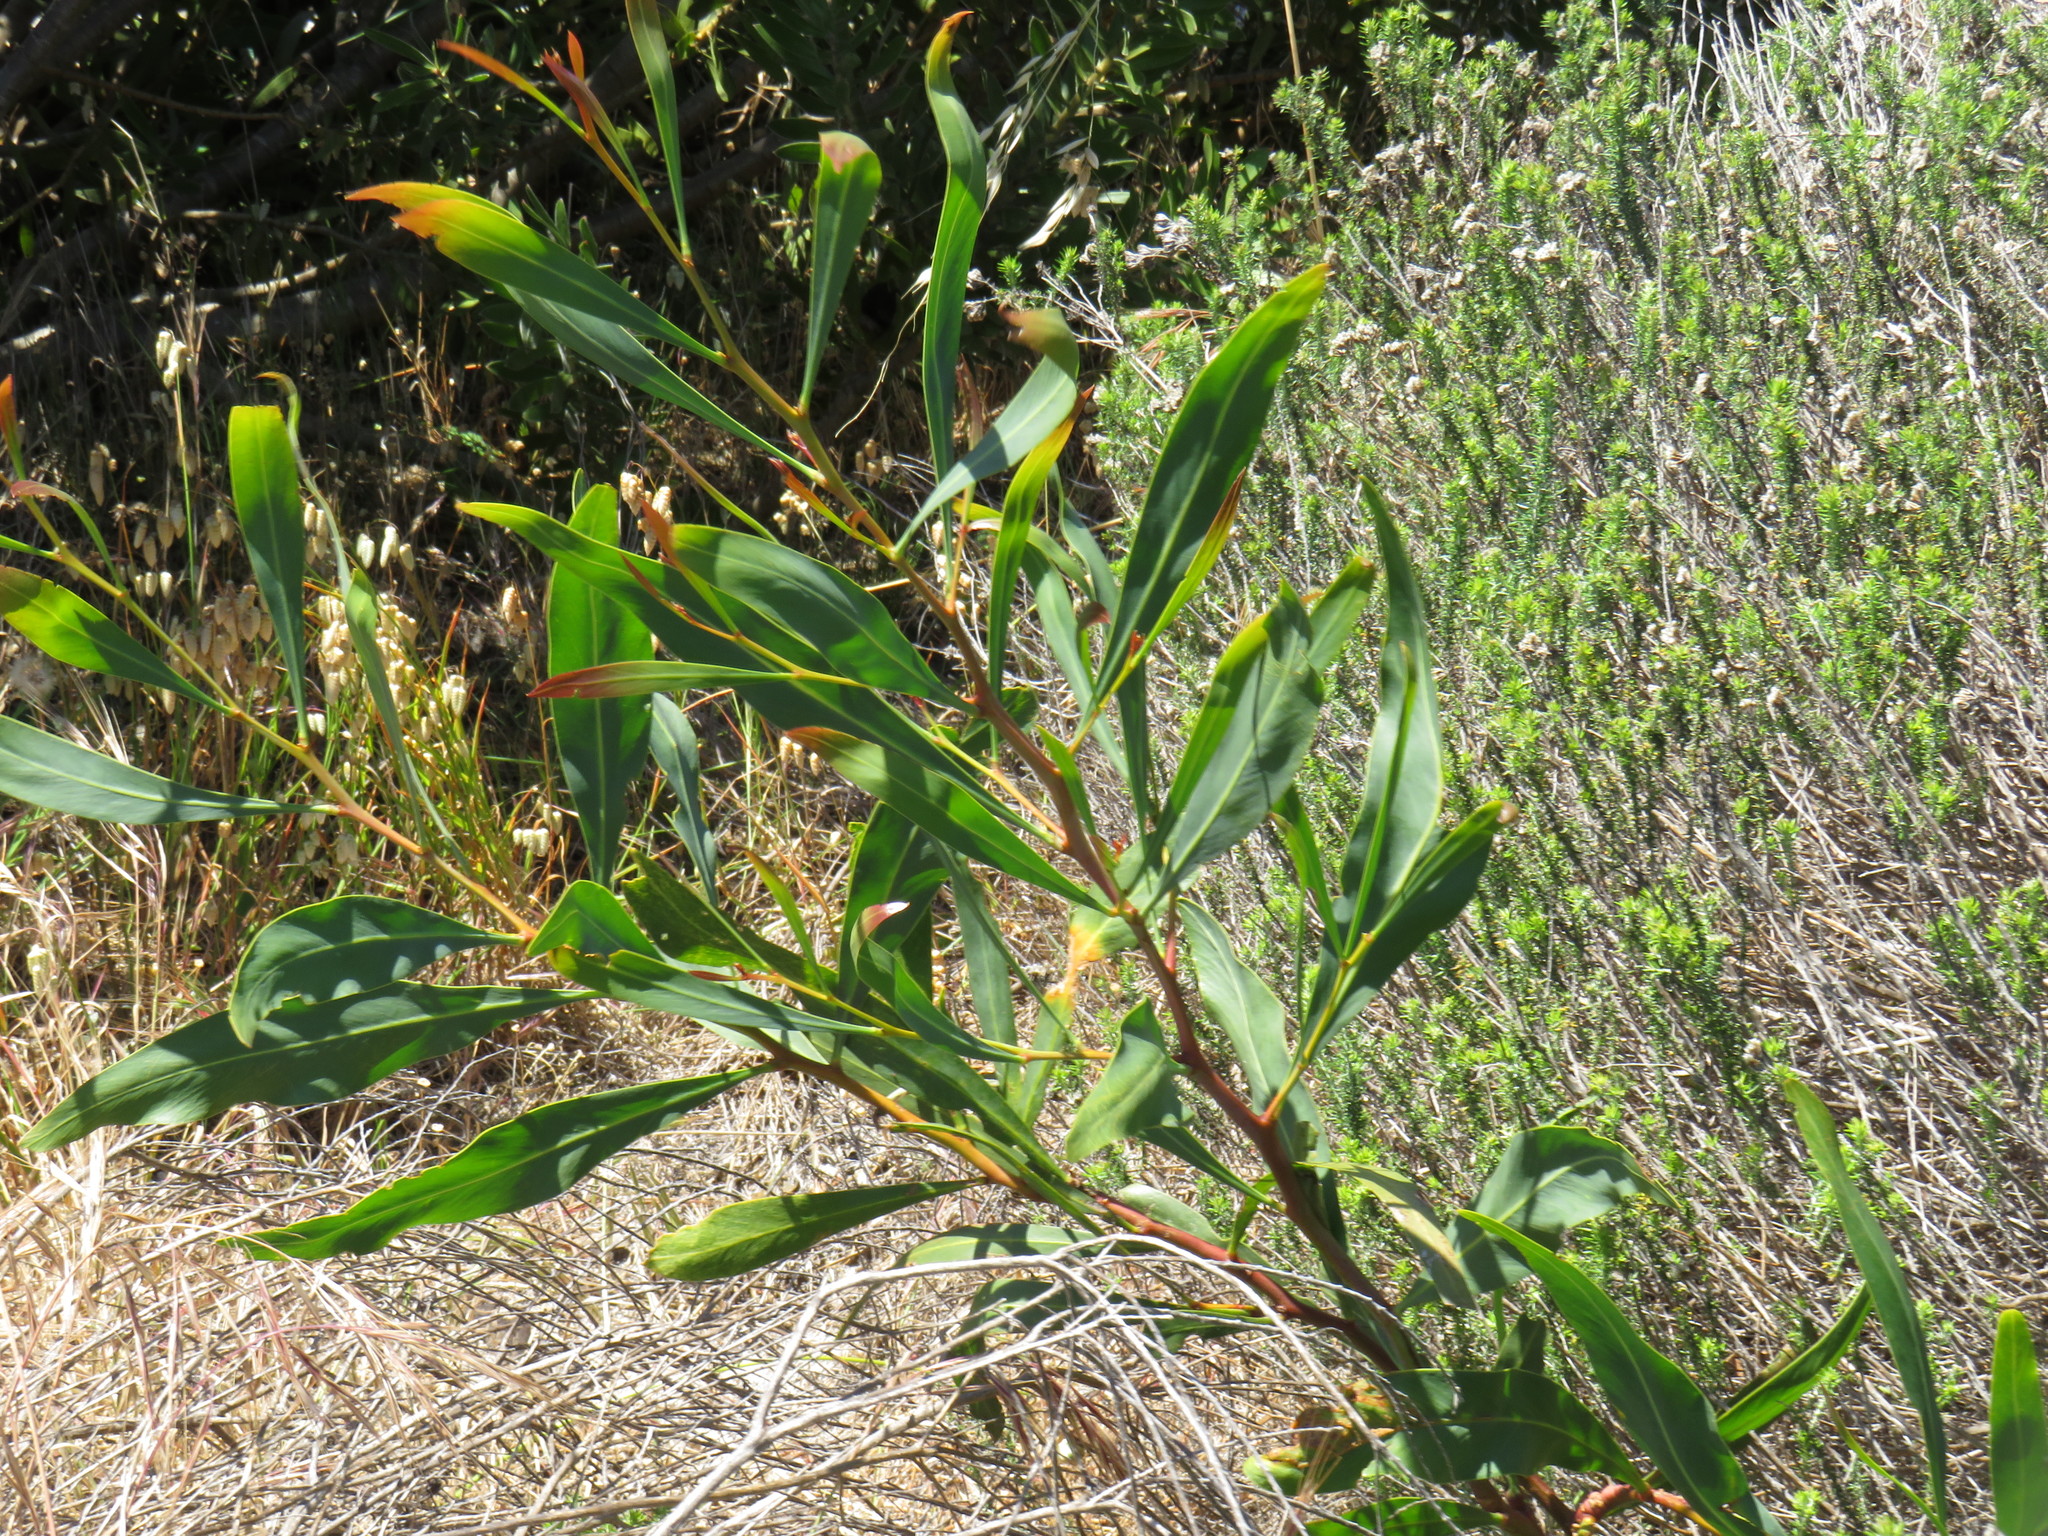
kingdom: Plantae
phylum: Tracheophyta
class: Magnoliopsida
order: Fabales
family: Fabaceae
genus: Acacia
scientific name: Acacia saligna
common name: Orange wattle
